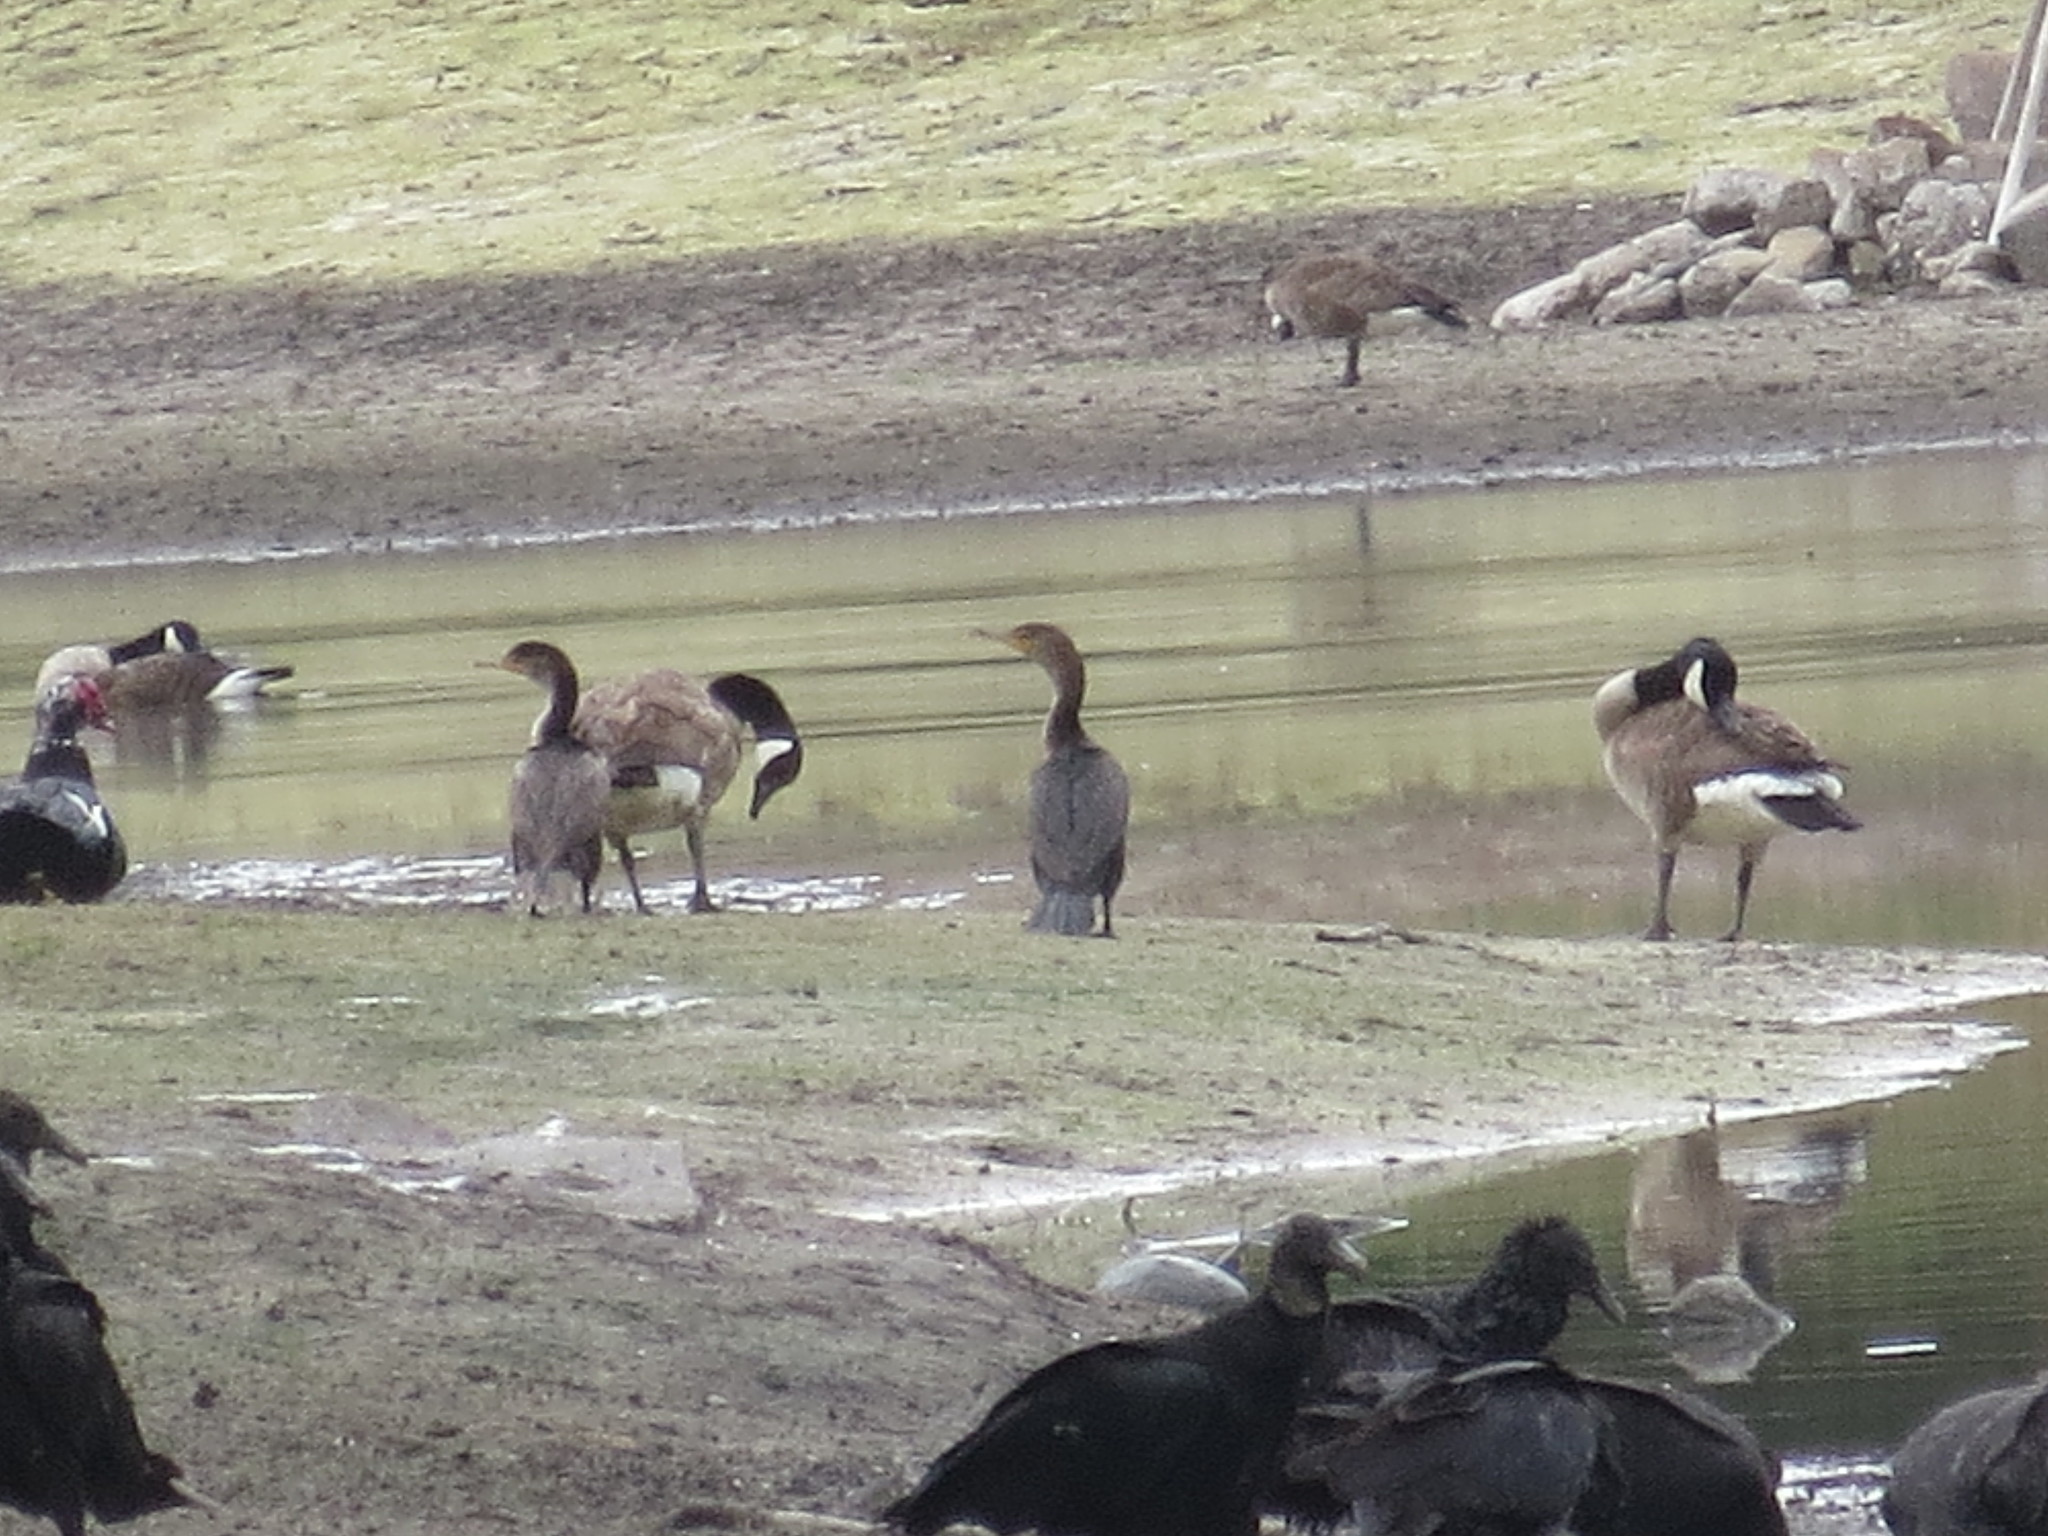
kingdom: Animalia
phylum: Chordata
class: Aves
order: Suliformes
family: Phalacrocoracidae
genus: Phalacrocorax
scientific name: Phalacrocorax auritus
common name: Double-crested cormorant
